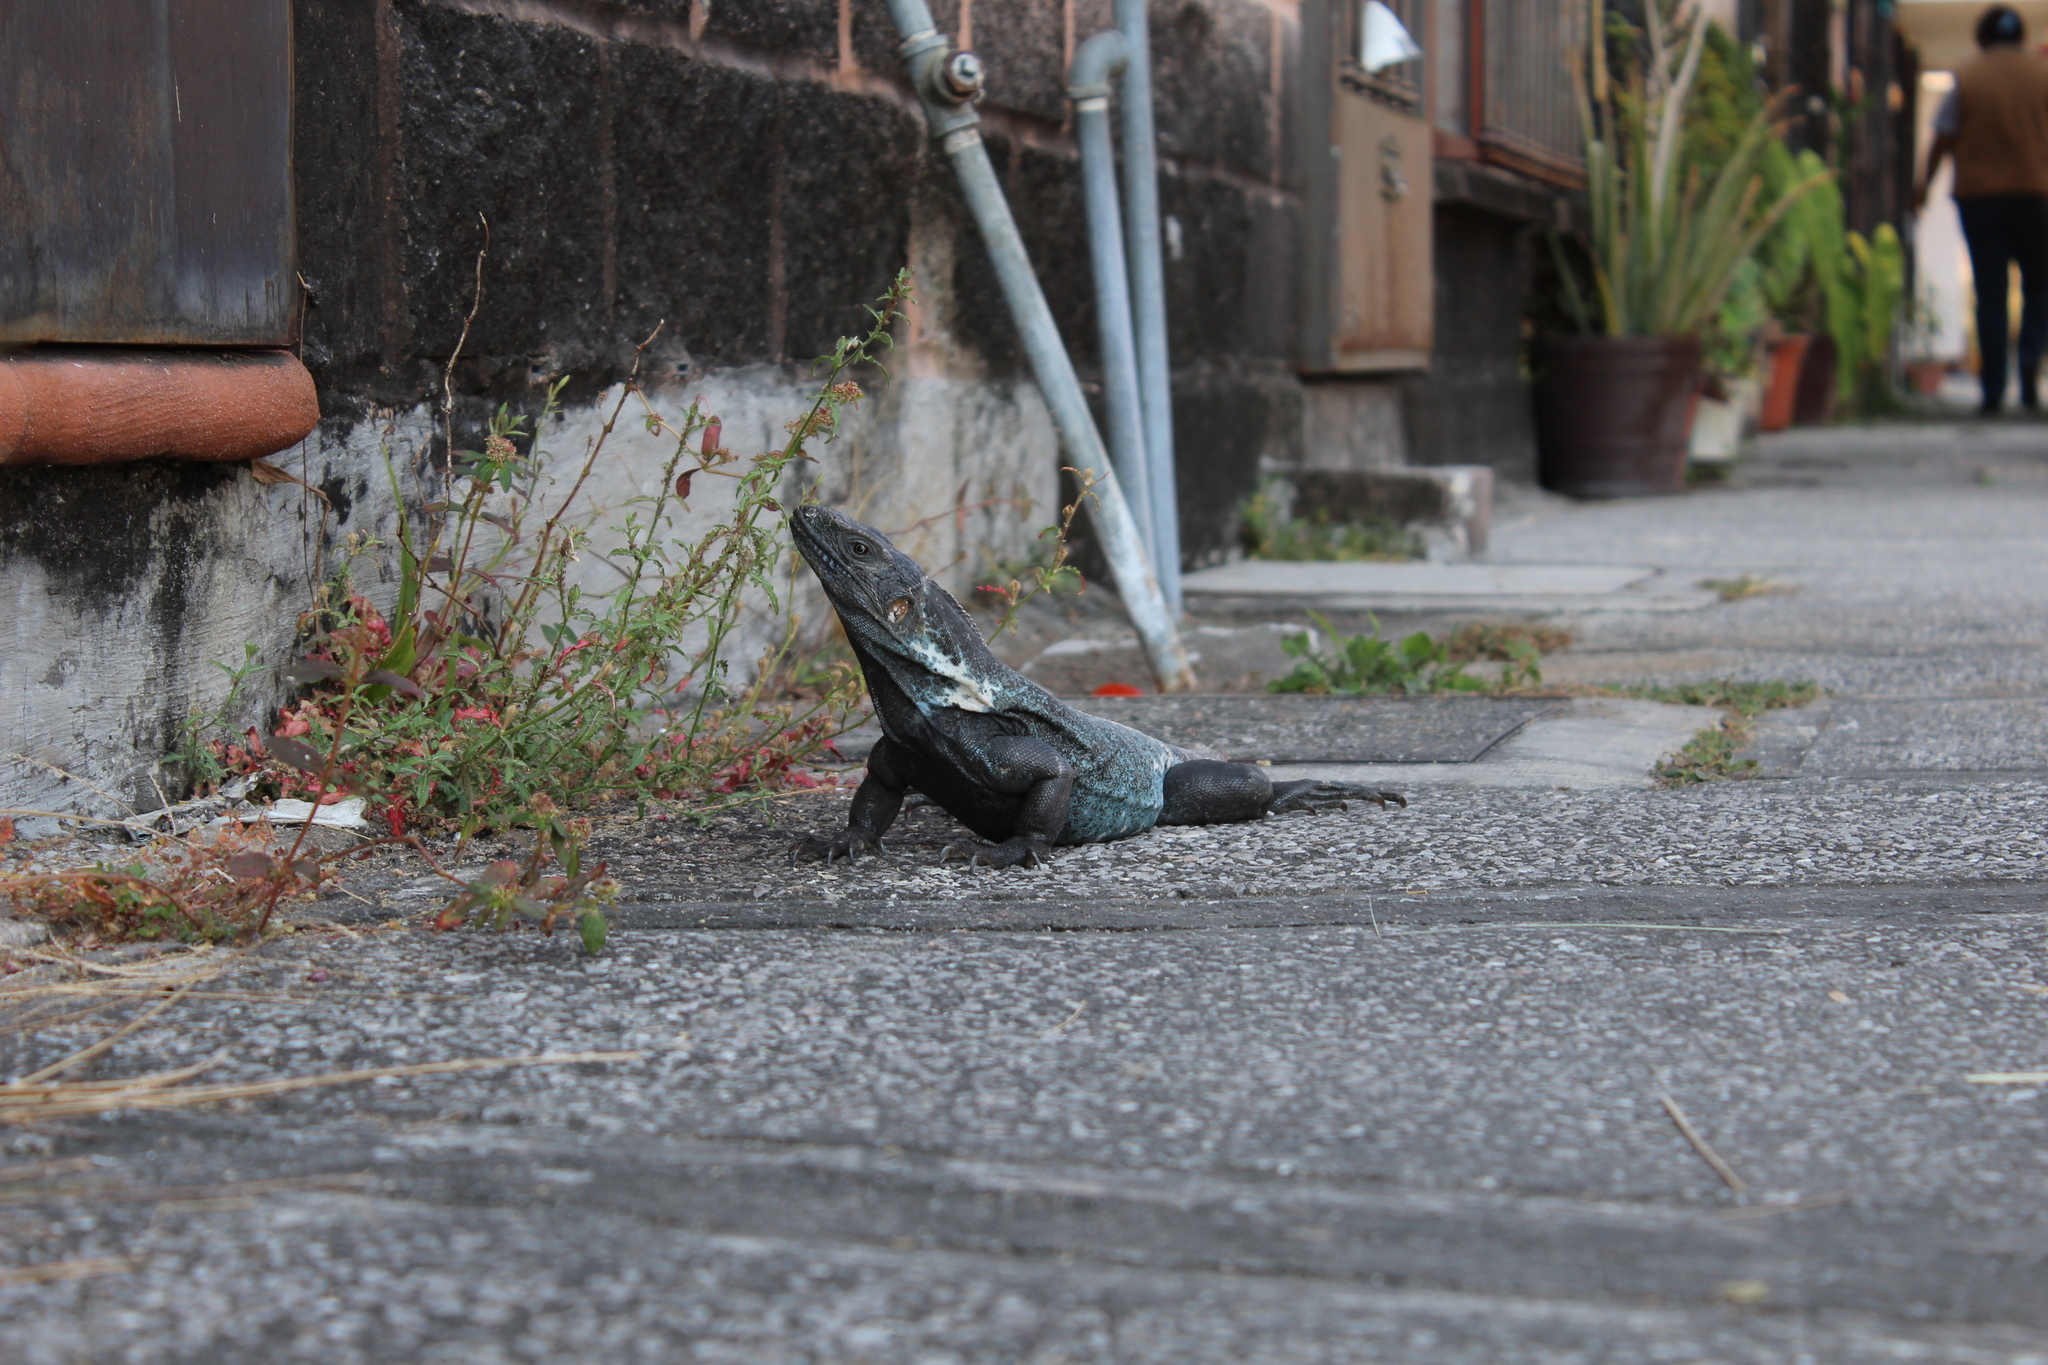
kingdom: Animalia
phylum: Chordata
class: Squamata
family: Iguanidae
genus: Ctenosaura
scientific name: Ctenosaura pectinata
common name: Guerreran spiny-tailed iguana
